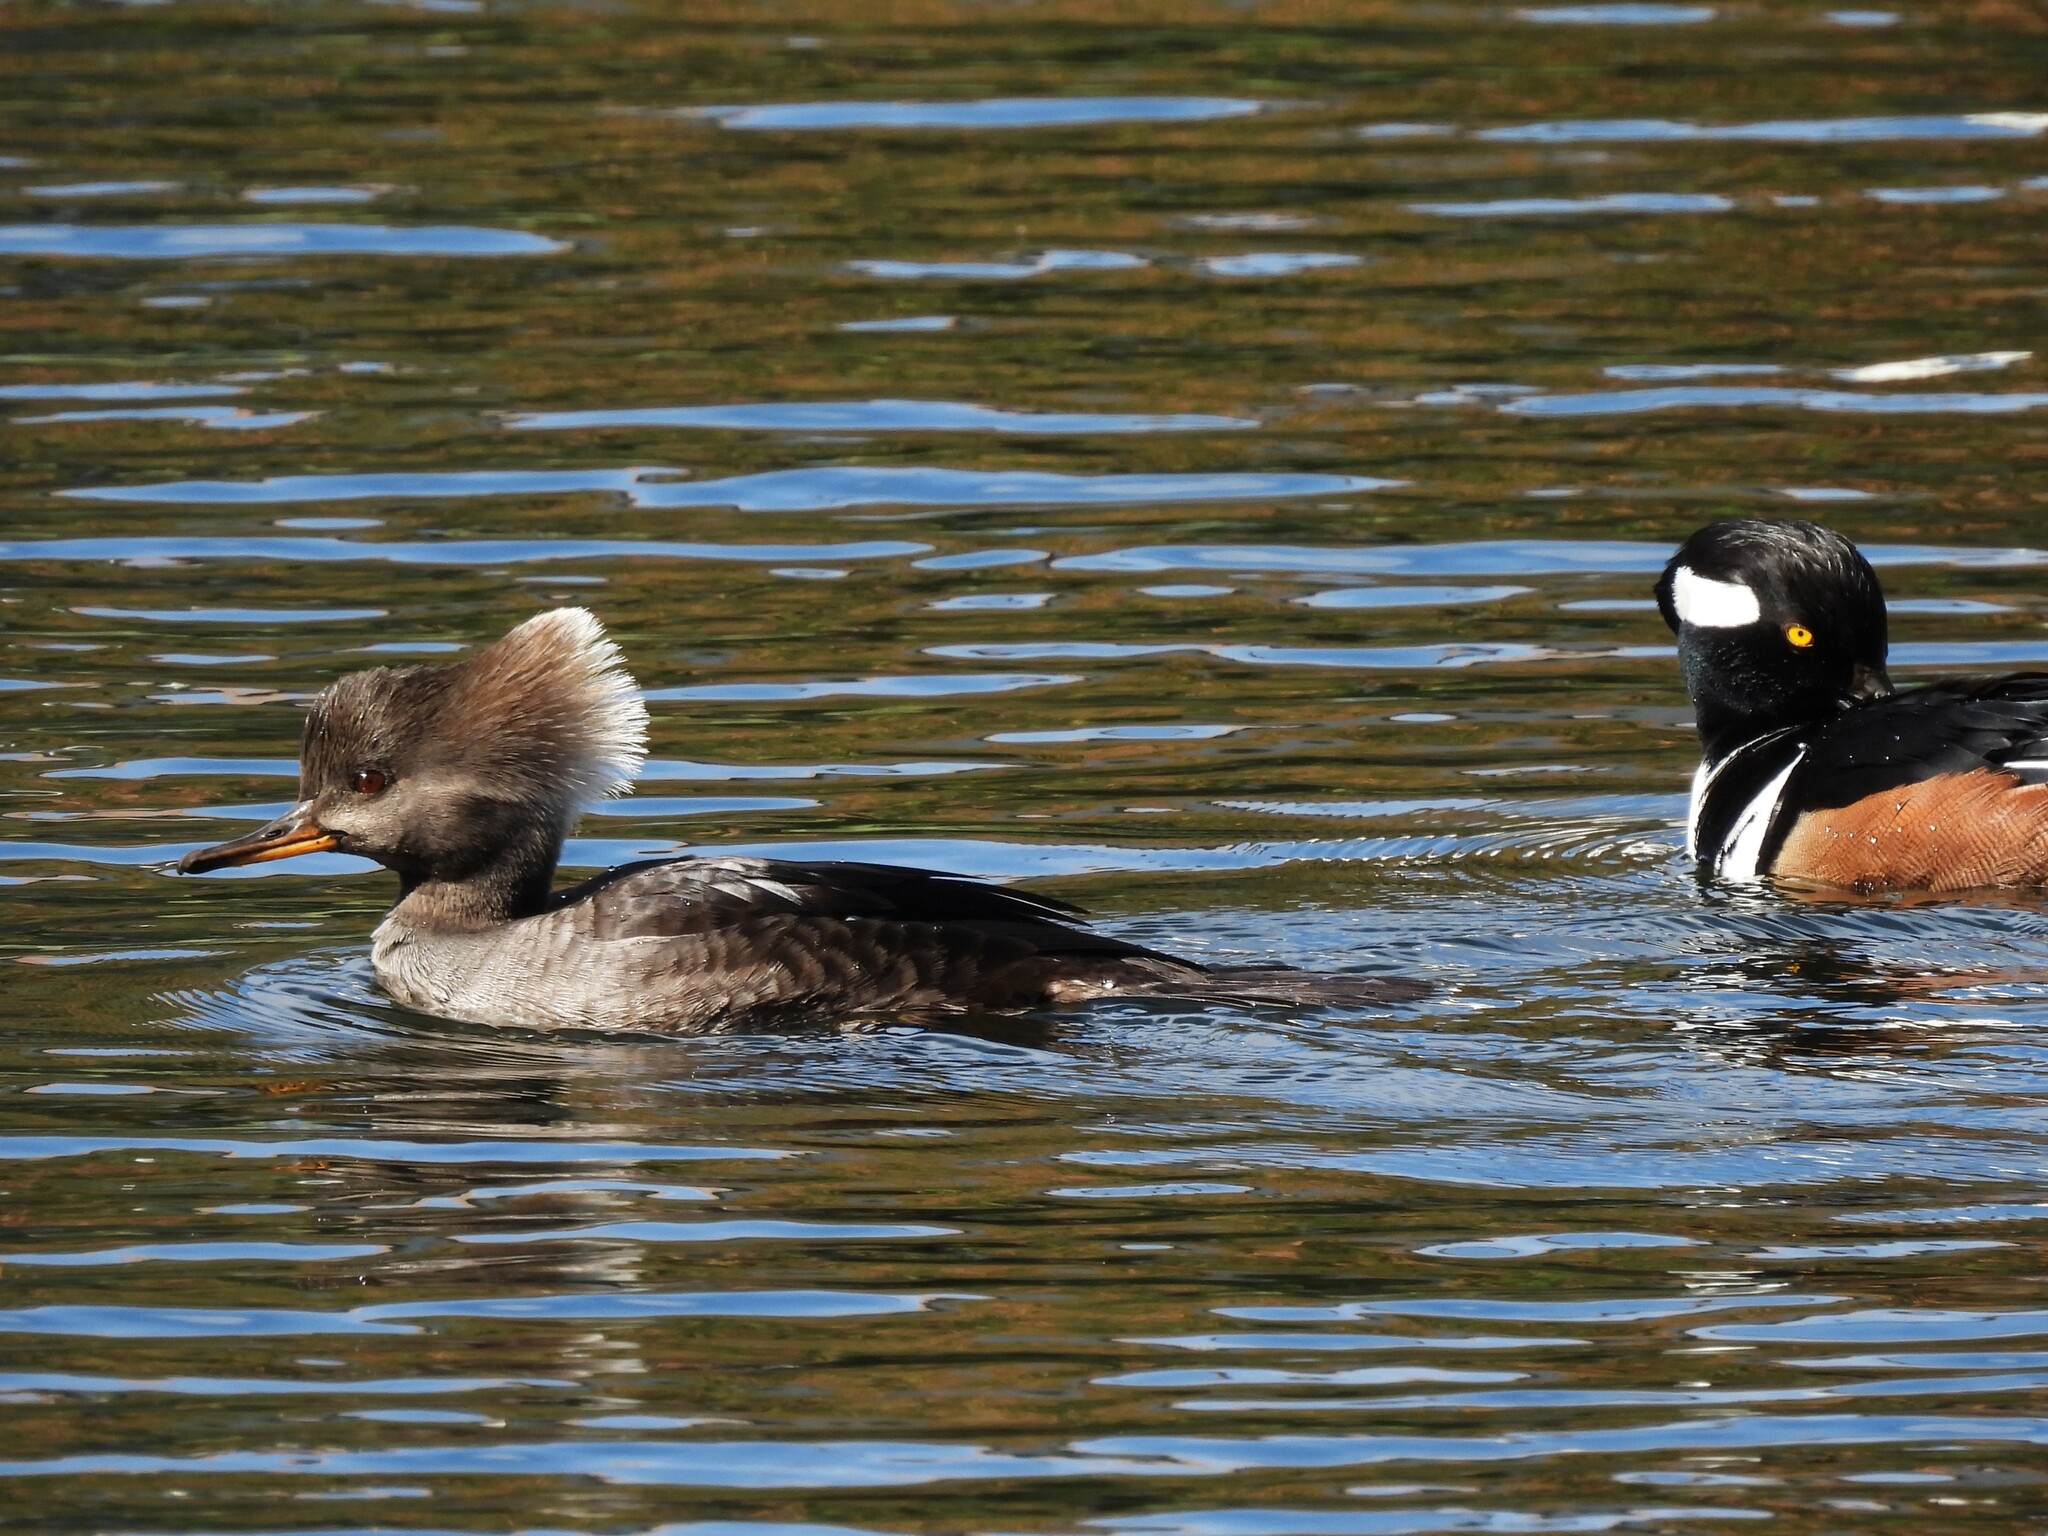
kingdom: Animalia
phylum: Chordata
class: Aves
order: Anseriformes
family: Anatidae
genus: Lophodytes
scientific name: Lophodytes cucullatus
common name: Hooded merganser
